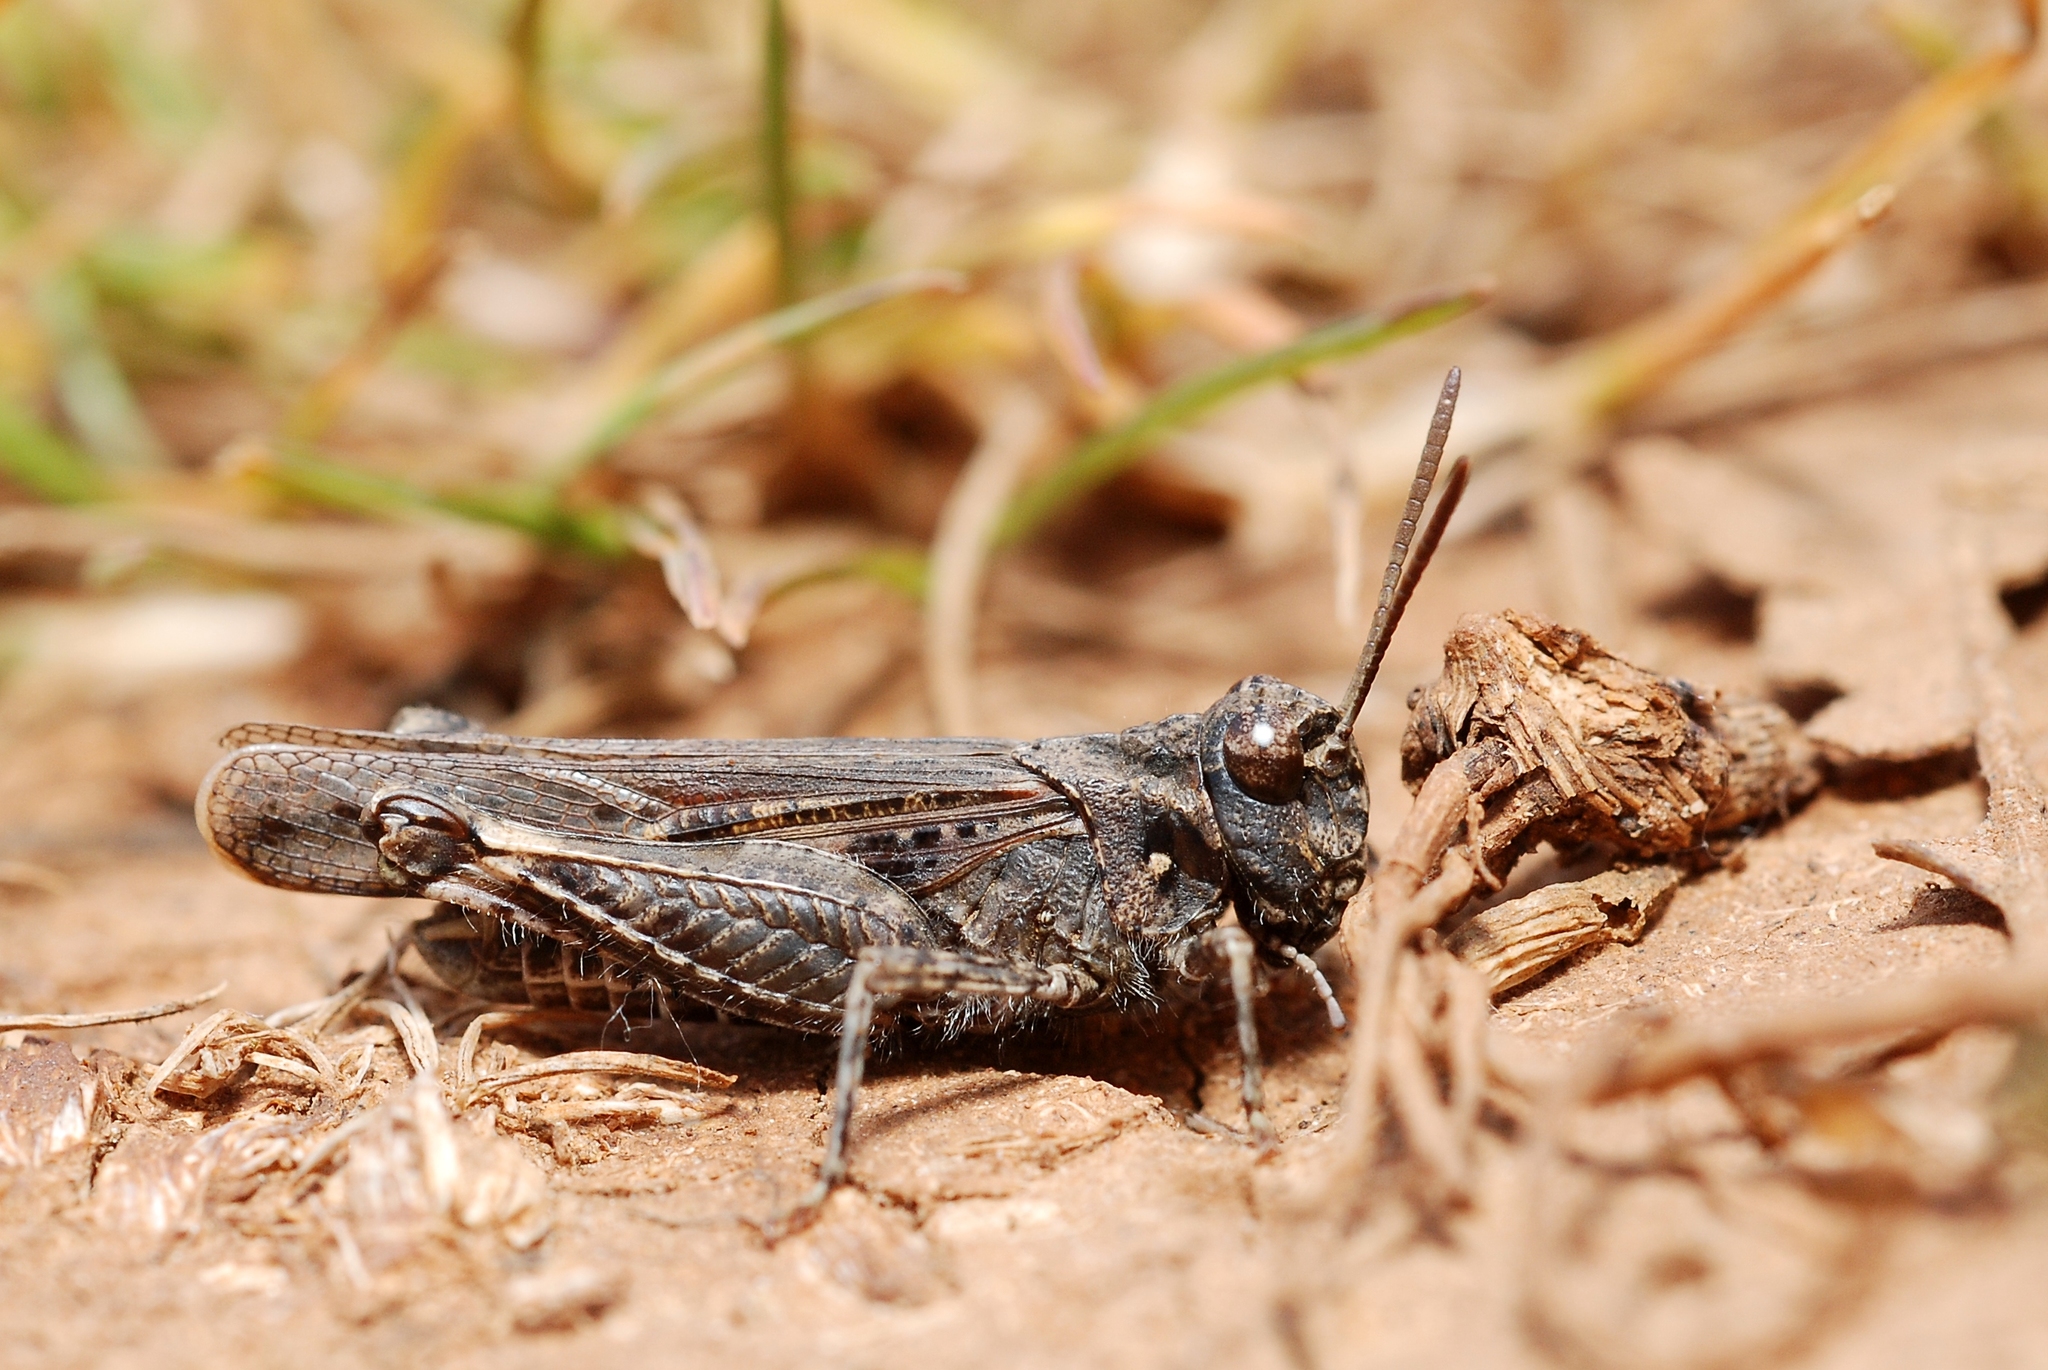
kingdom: Animalia
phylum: Arthropoda
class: Insecta
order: Orthoptera
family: Acrididae
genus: Acrotylus
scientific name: Acrotylus fischeri
